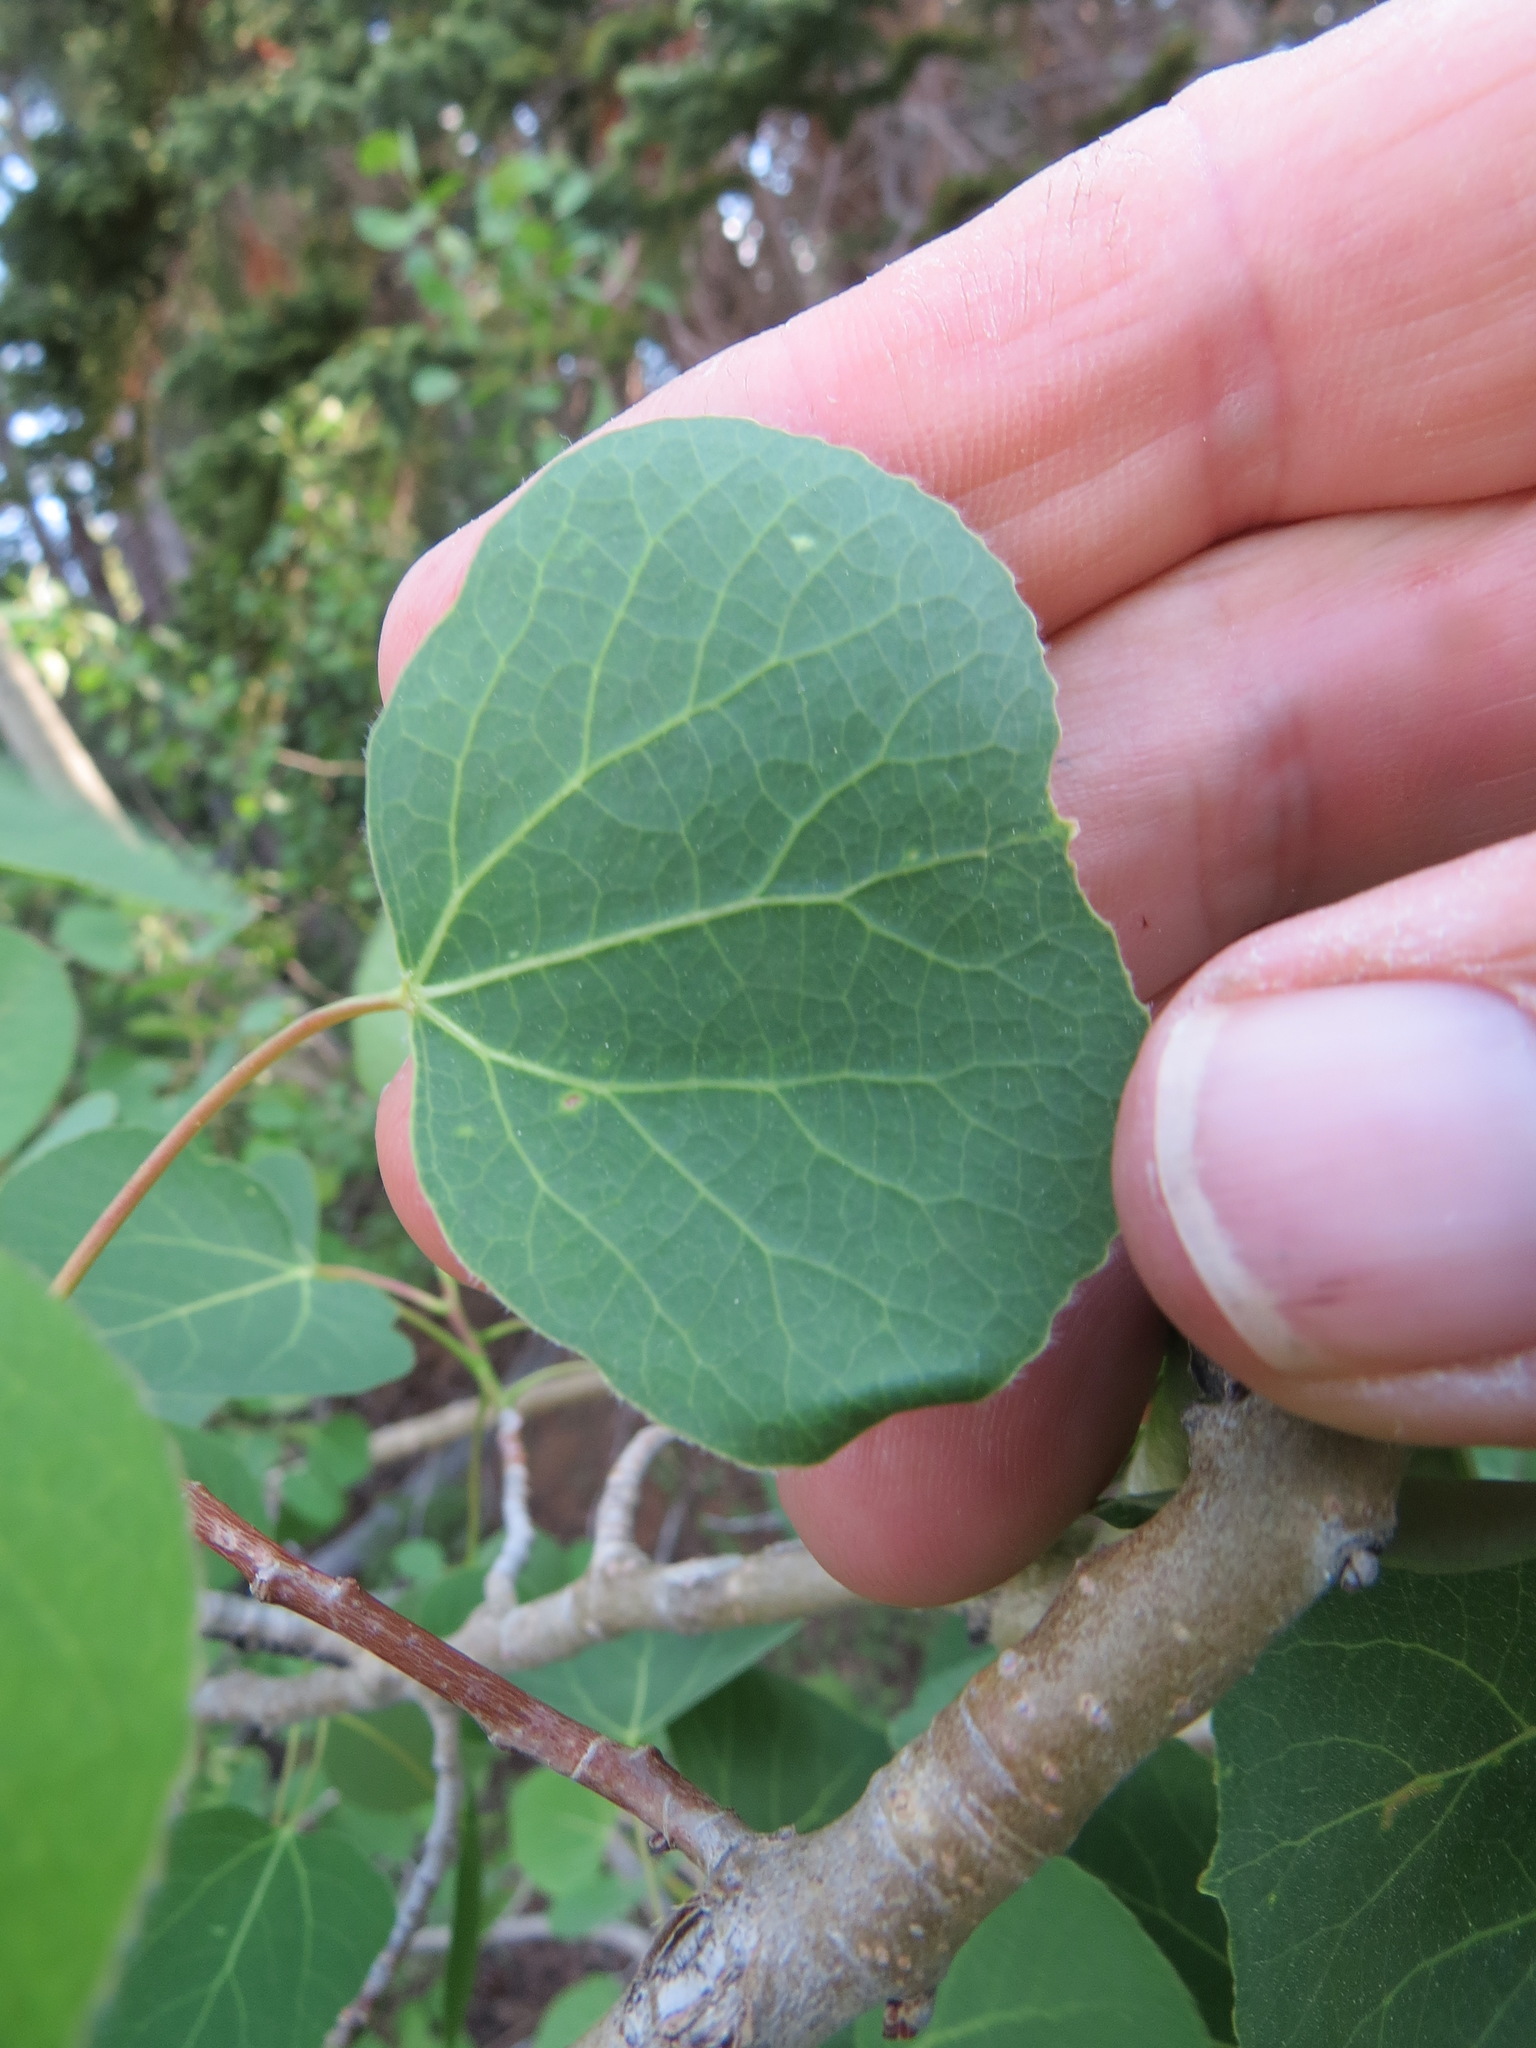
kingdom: Animalia
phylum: Arthropoda
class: Insecta
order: Lepidoptera
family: Gracillariidae
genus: Phyllocnistis
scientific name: Phyllocnistis populiella
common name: Aspen serpentine leafminer moth
